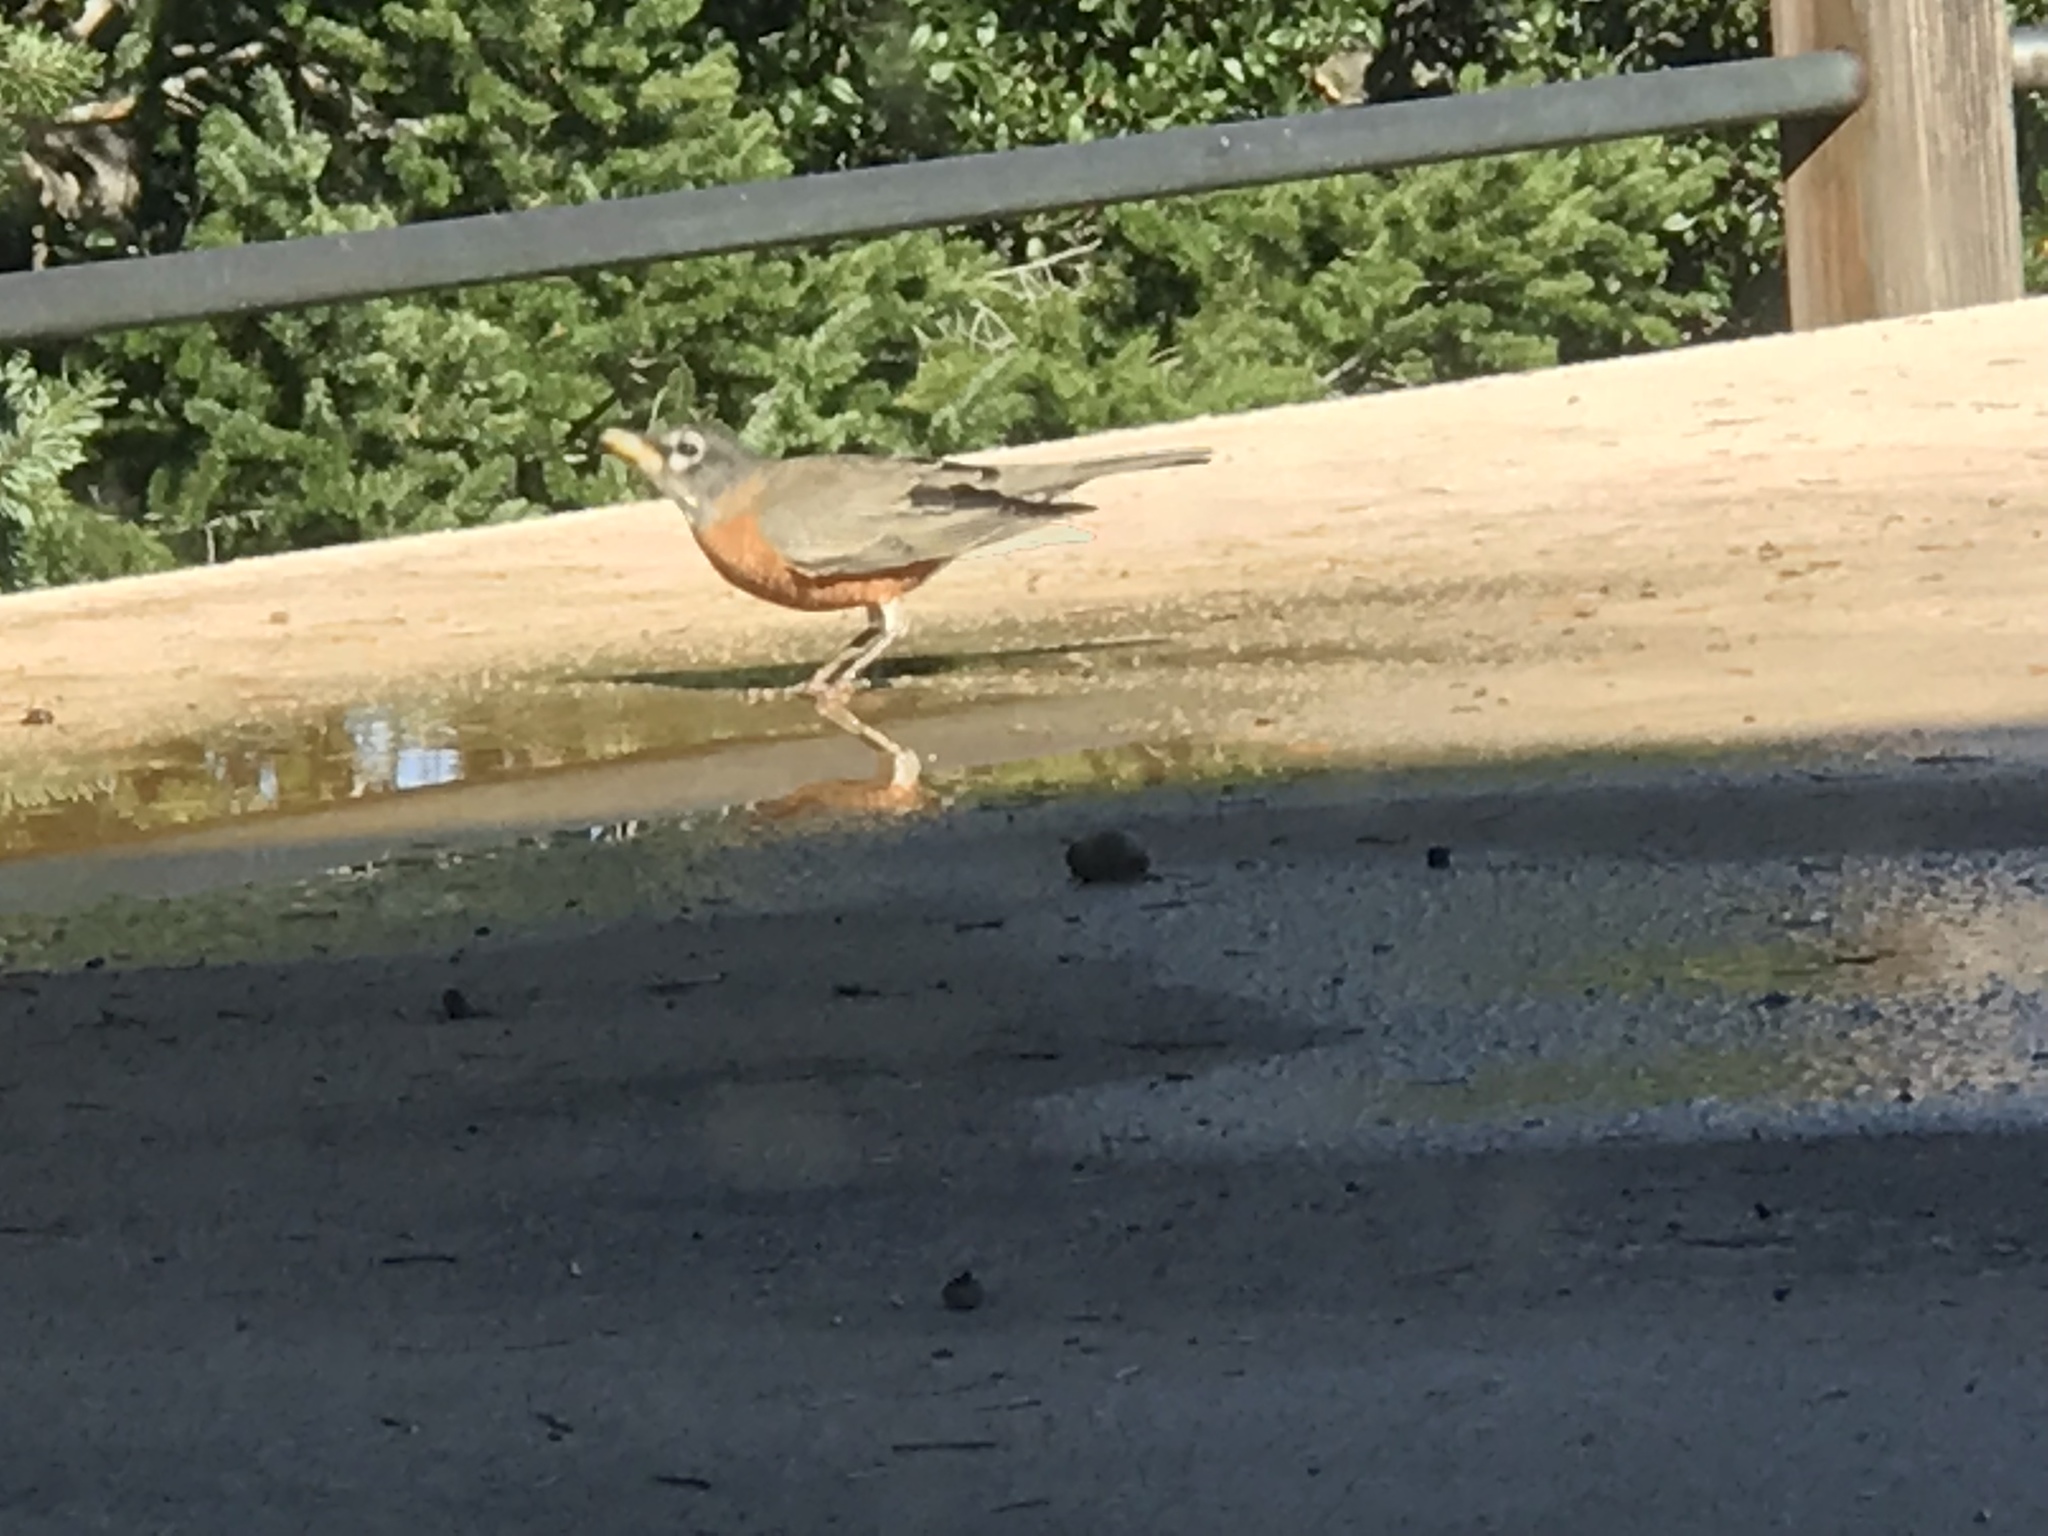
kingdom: Animalia
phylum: Chordata
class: Aves
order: Passeriformes
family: Turdidae
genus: Turdus
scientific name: Turdus migratorius
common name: American robin
